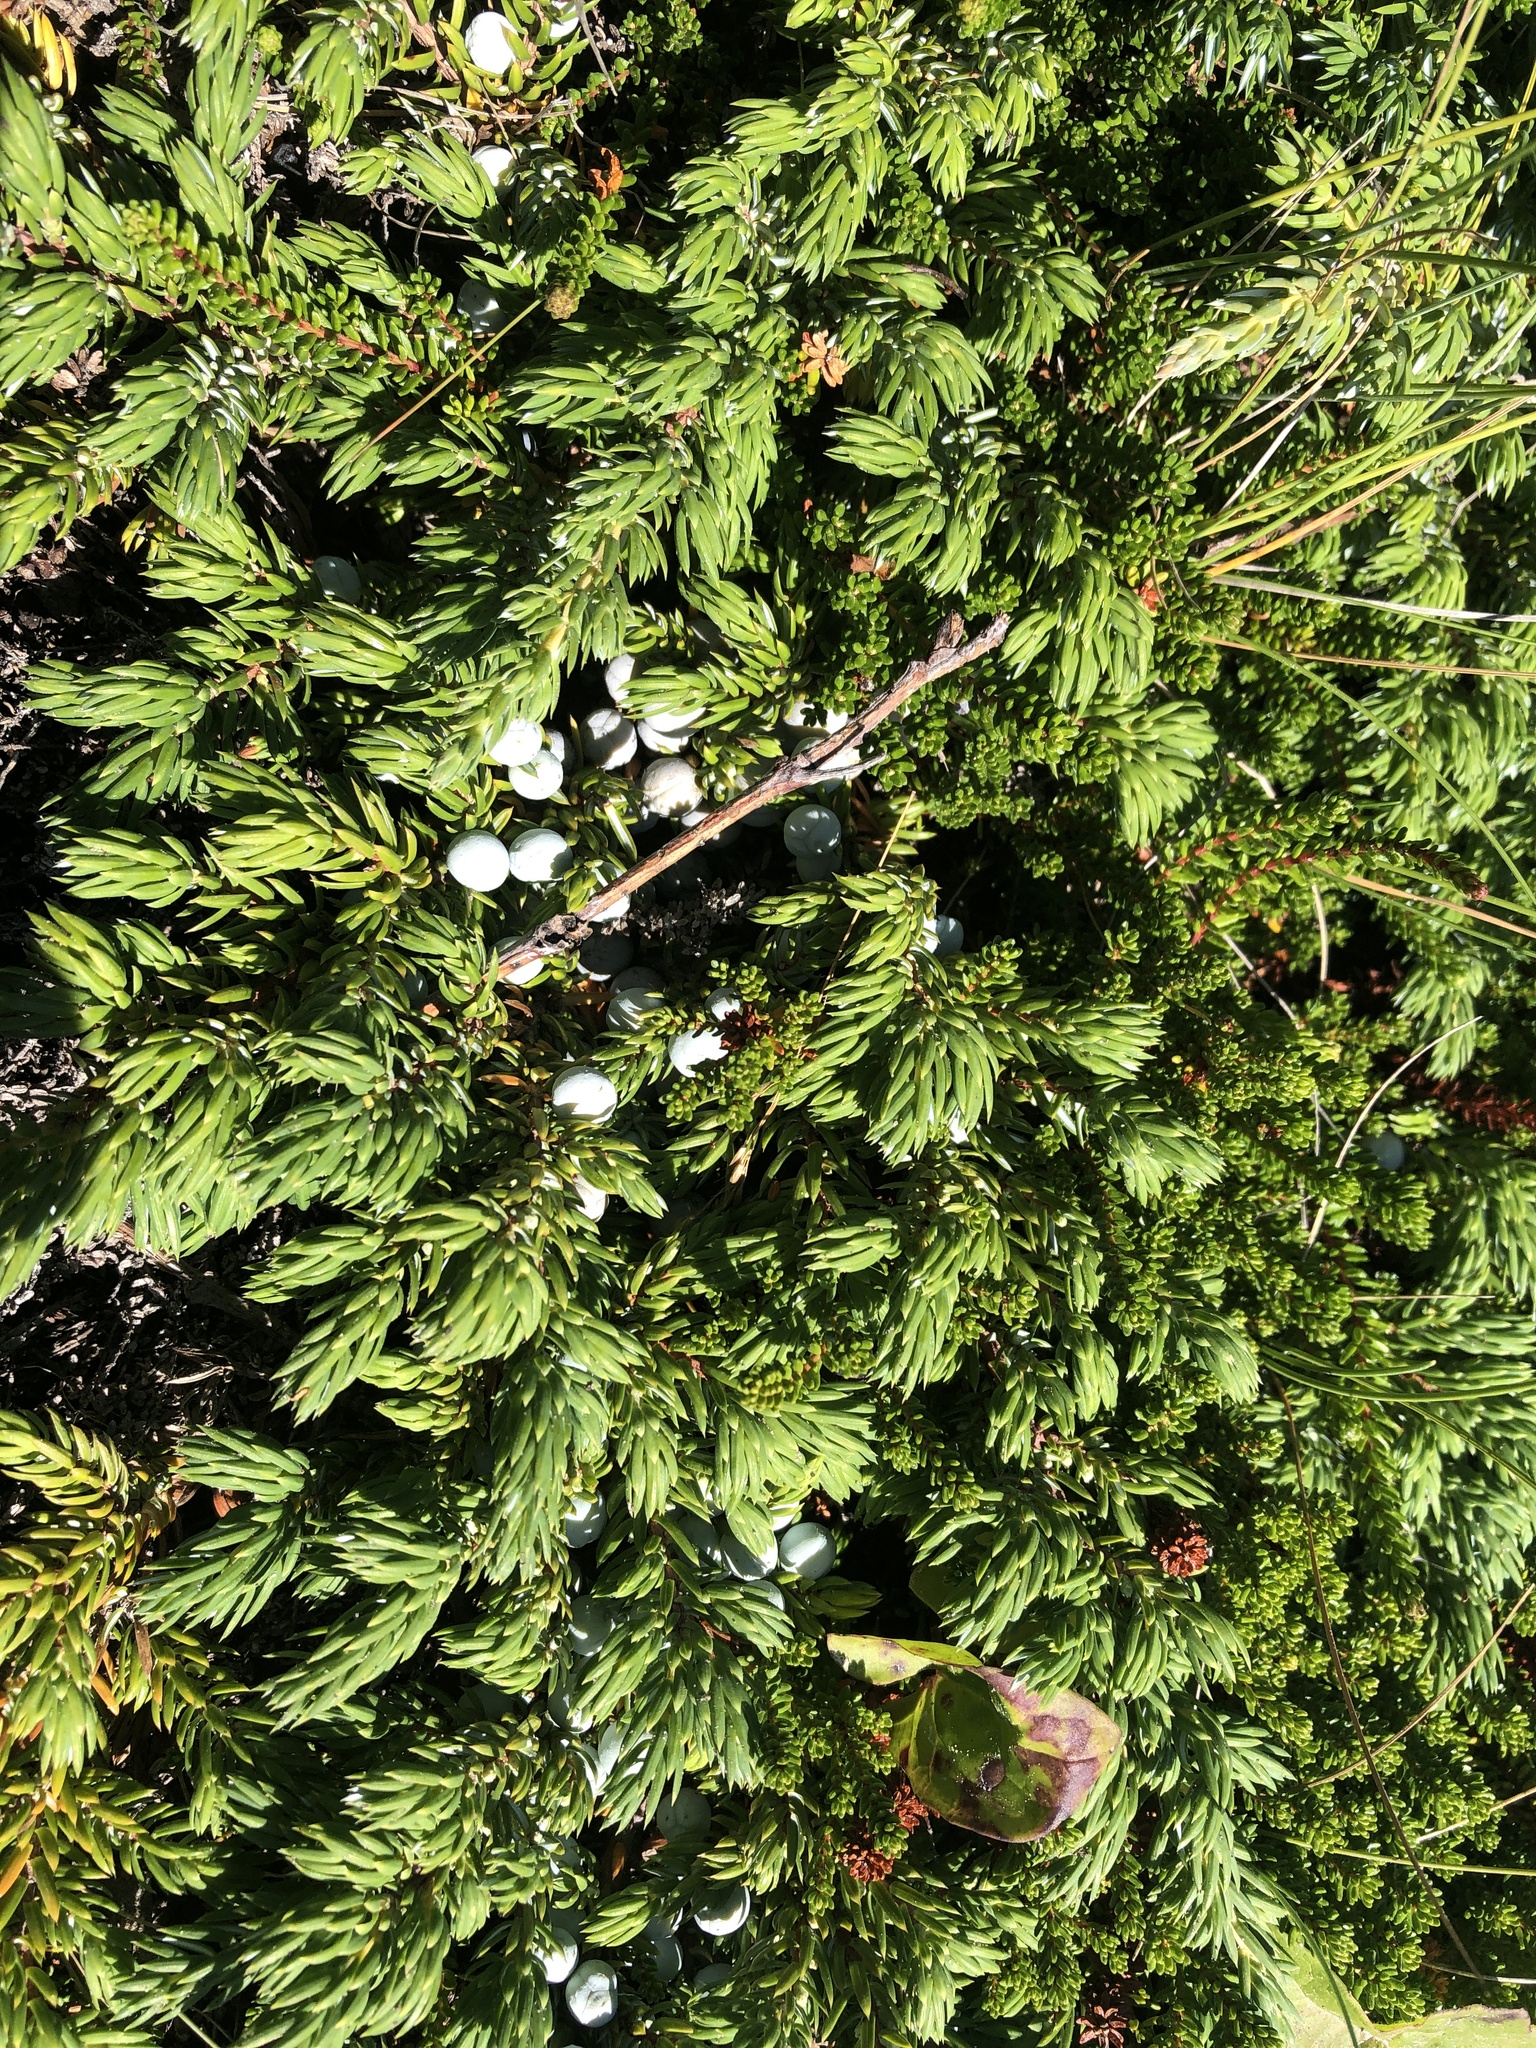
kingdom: Plantae
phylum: Tracheophyta
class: Pinopsida
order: Pinales
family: Cupressaceae
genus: Juniperus
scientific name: Juniperus communis
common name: Common juniper
